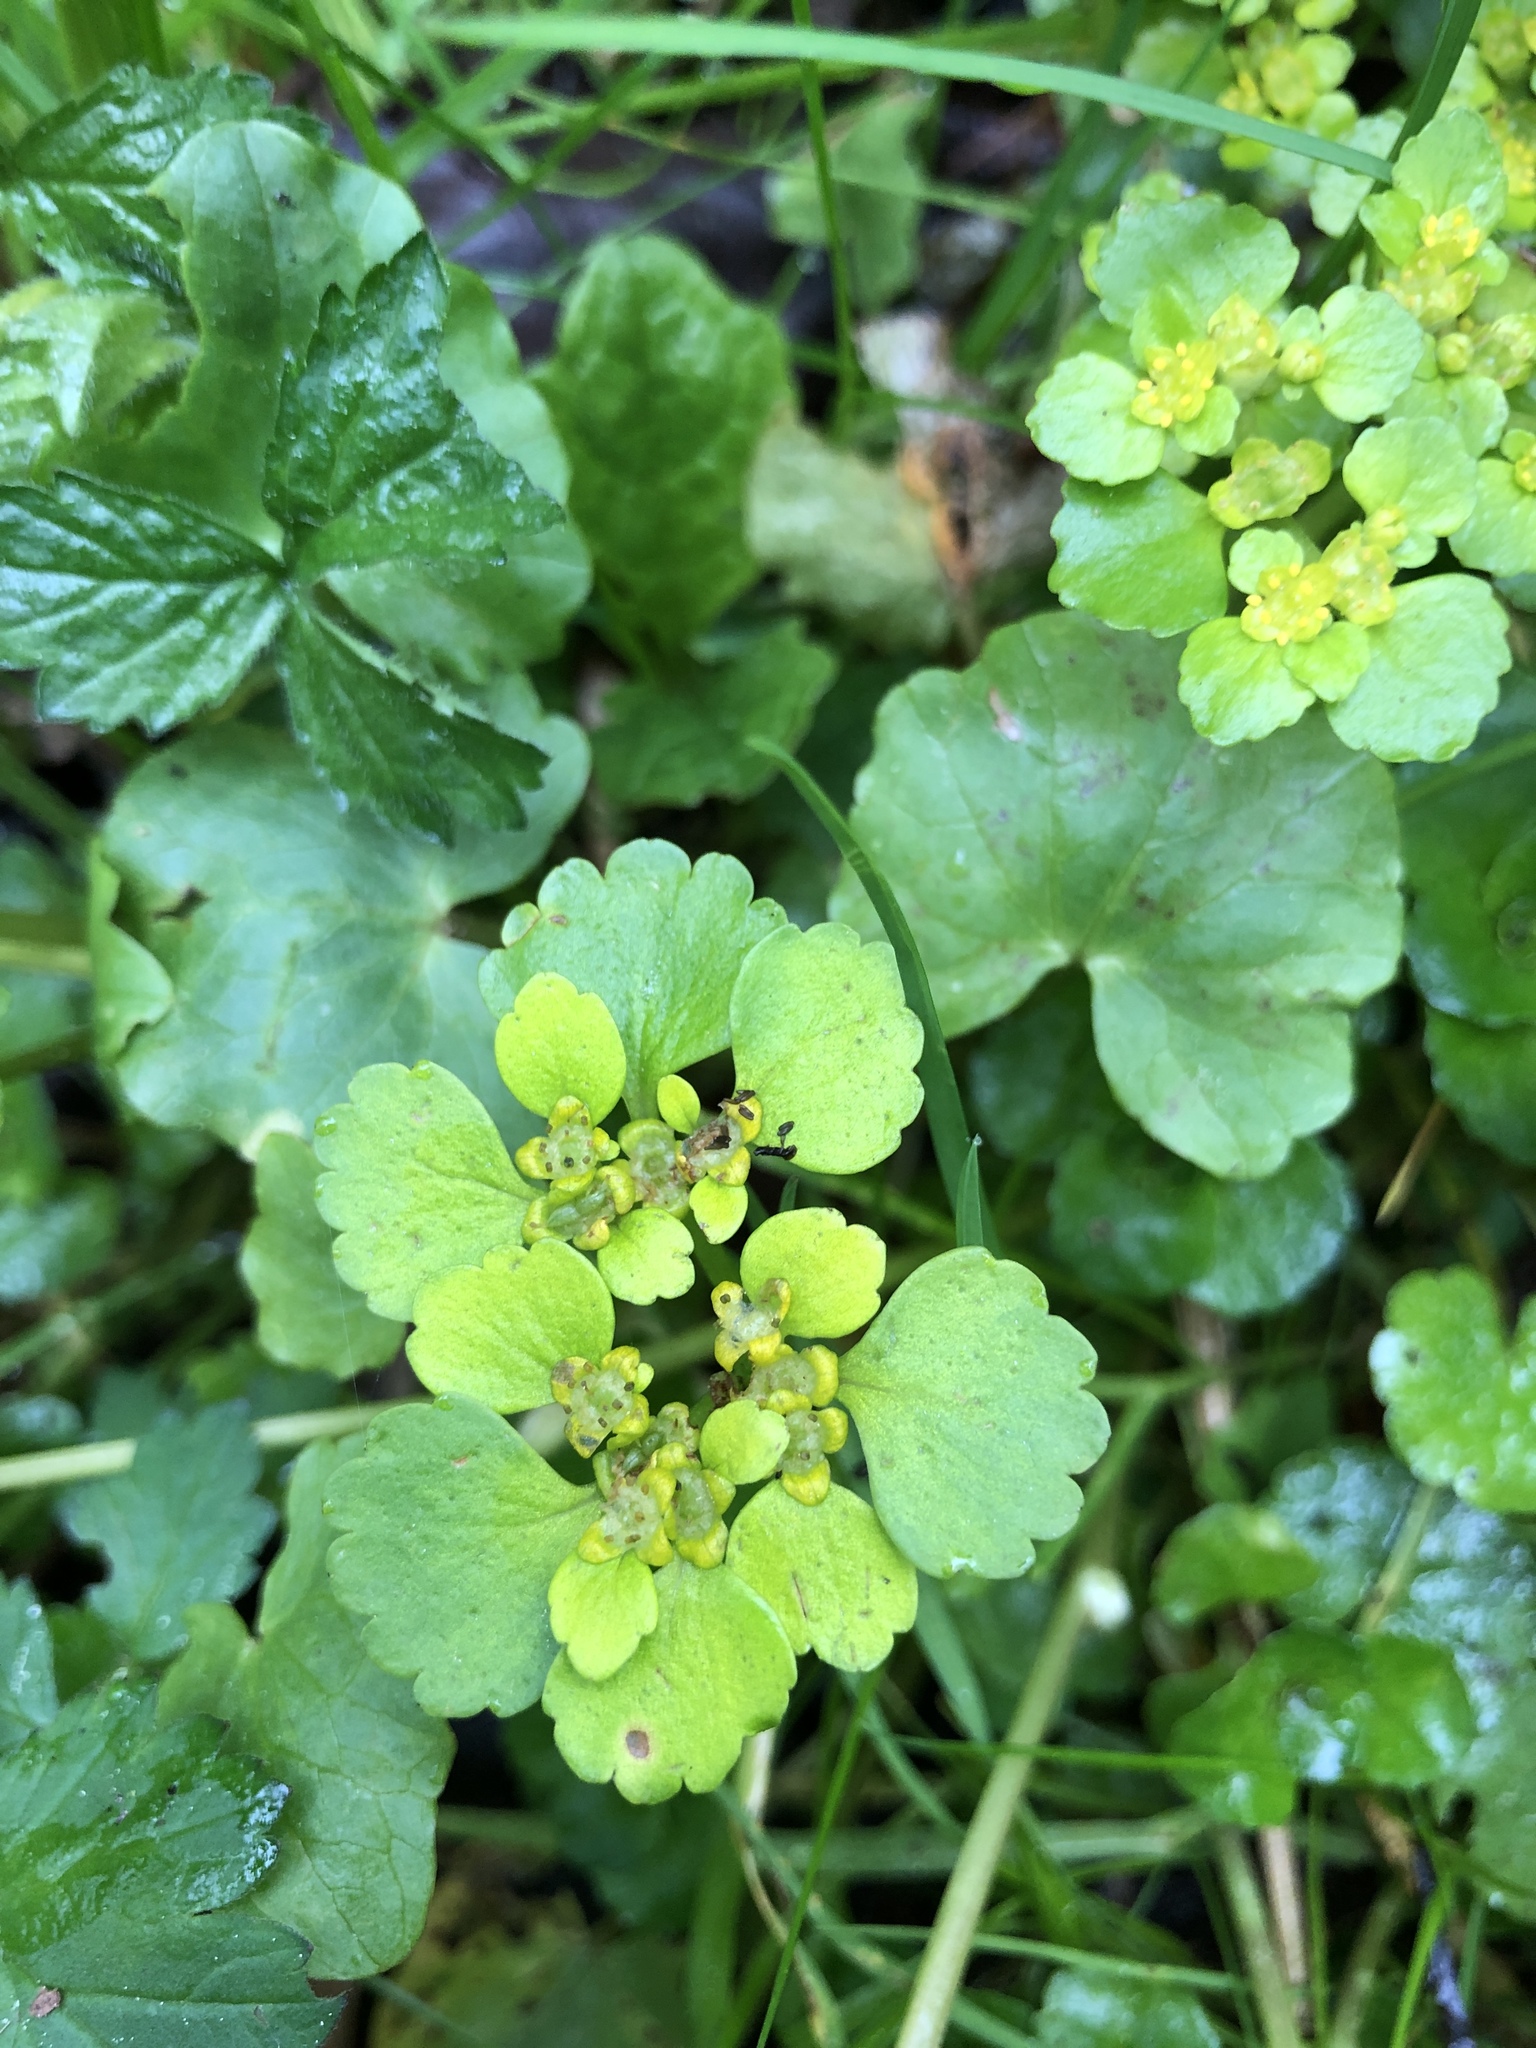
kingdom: Plantae
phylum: Tracheophyta
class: Magnoliopsida
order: Saxifragales
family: Saxifragaceae
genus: Chrysosplenium
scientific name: Chrysosplenium alternifolium
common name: Alternate-leaved golden-saxifrage
